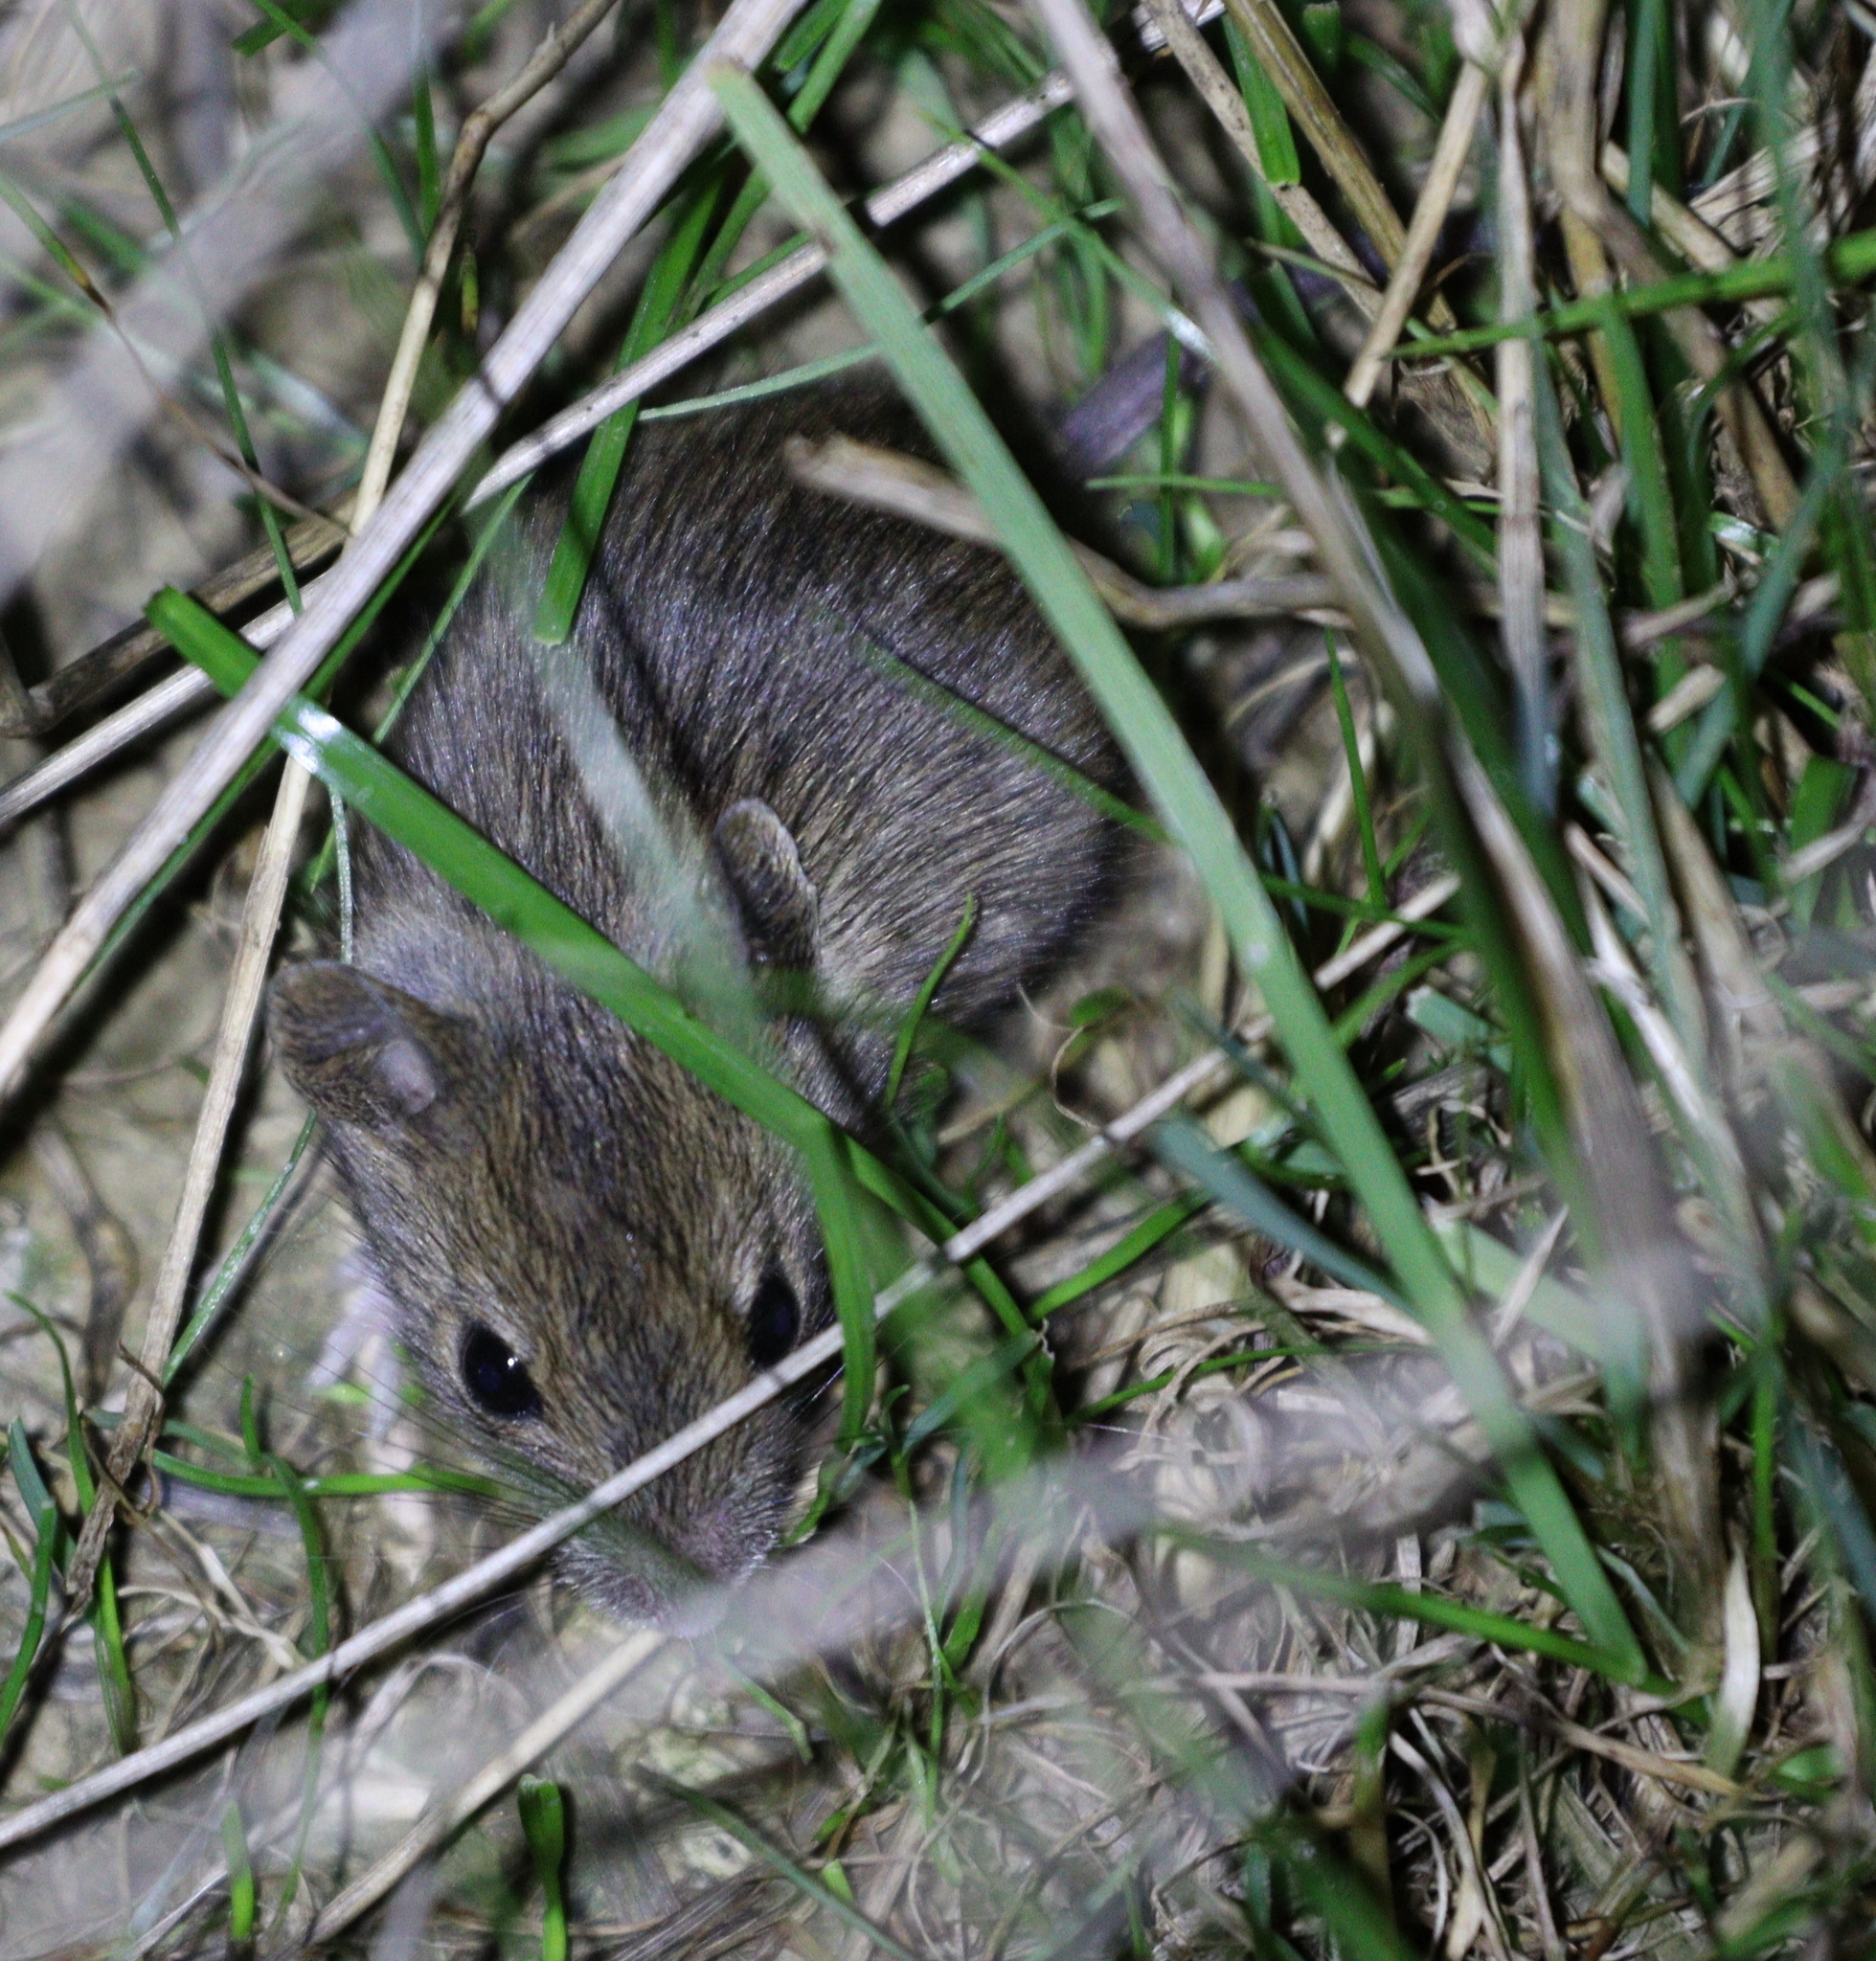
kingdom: Animalia
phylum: Chordata
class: Mammalia
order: Rodentia
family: Muridae
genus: Mus
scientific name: Mus spicilegus
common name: Mound-building mouse
